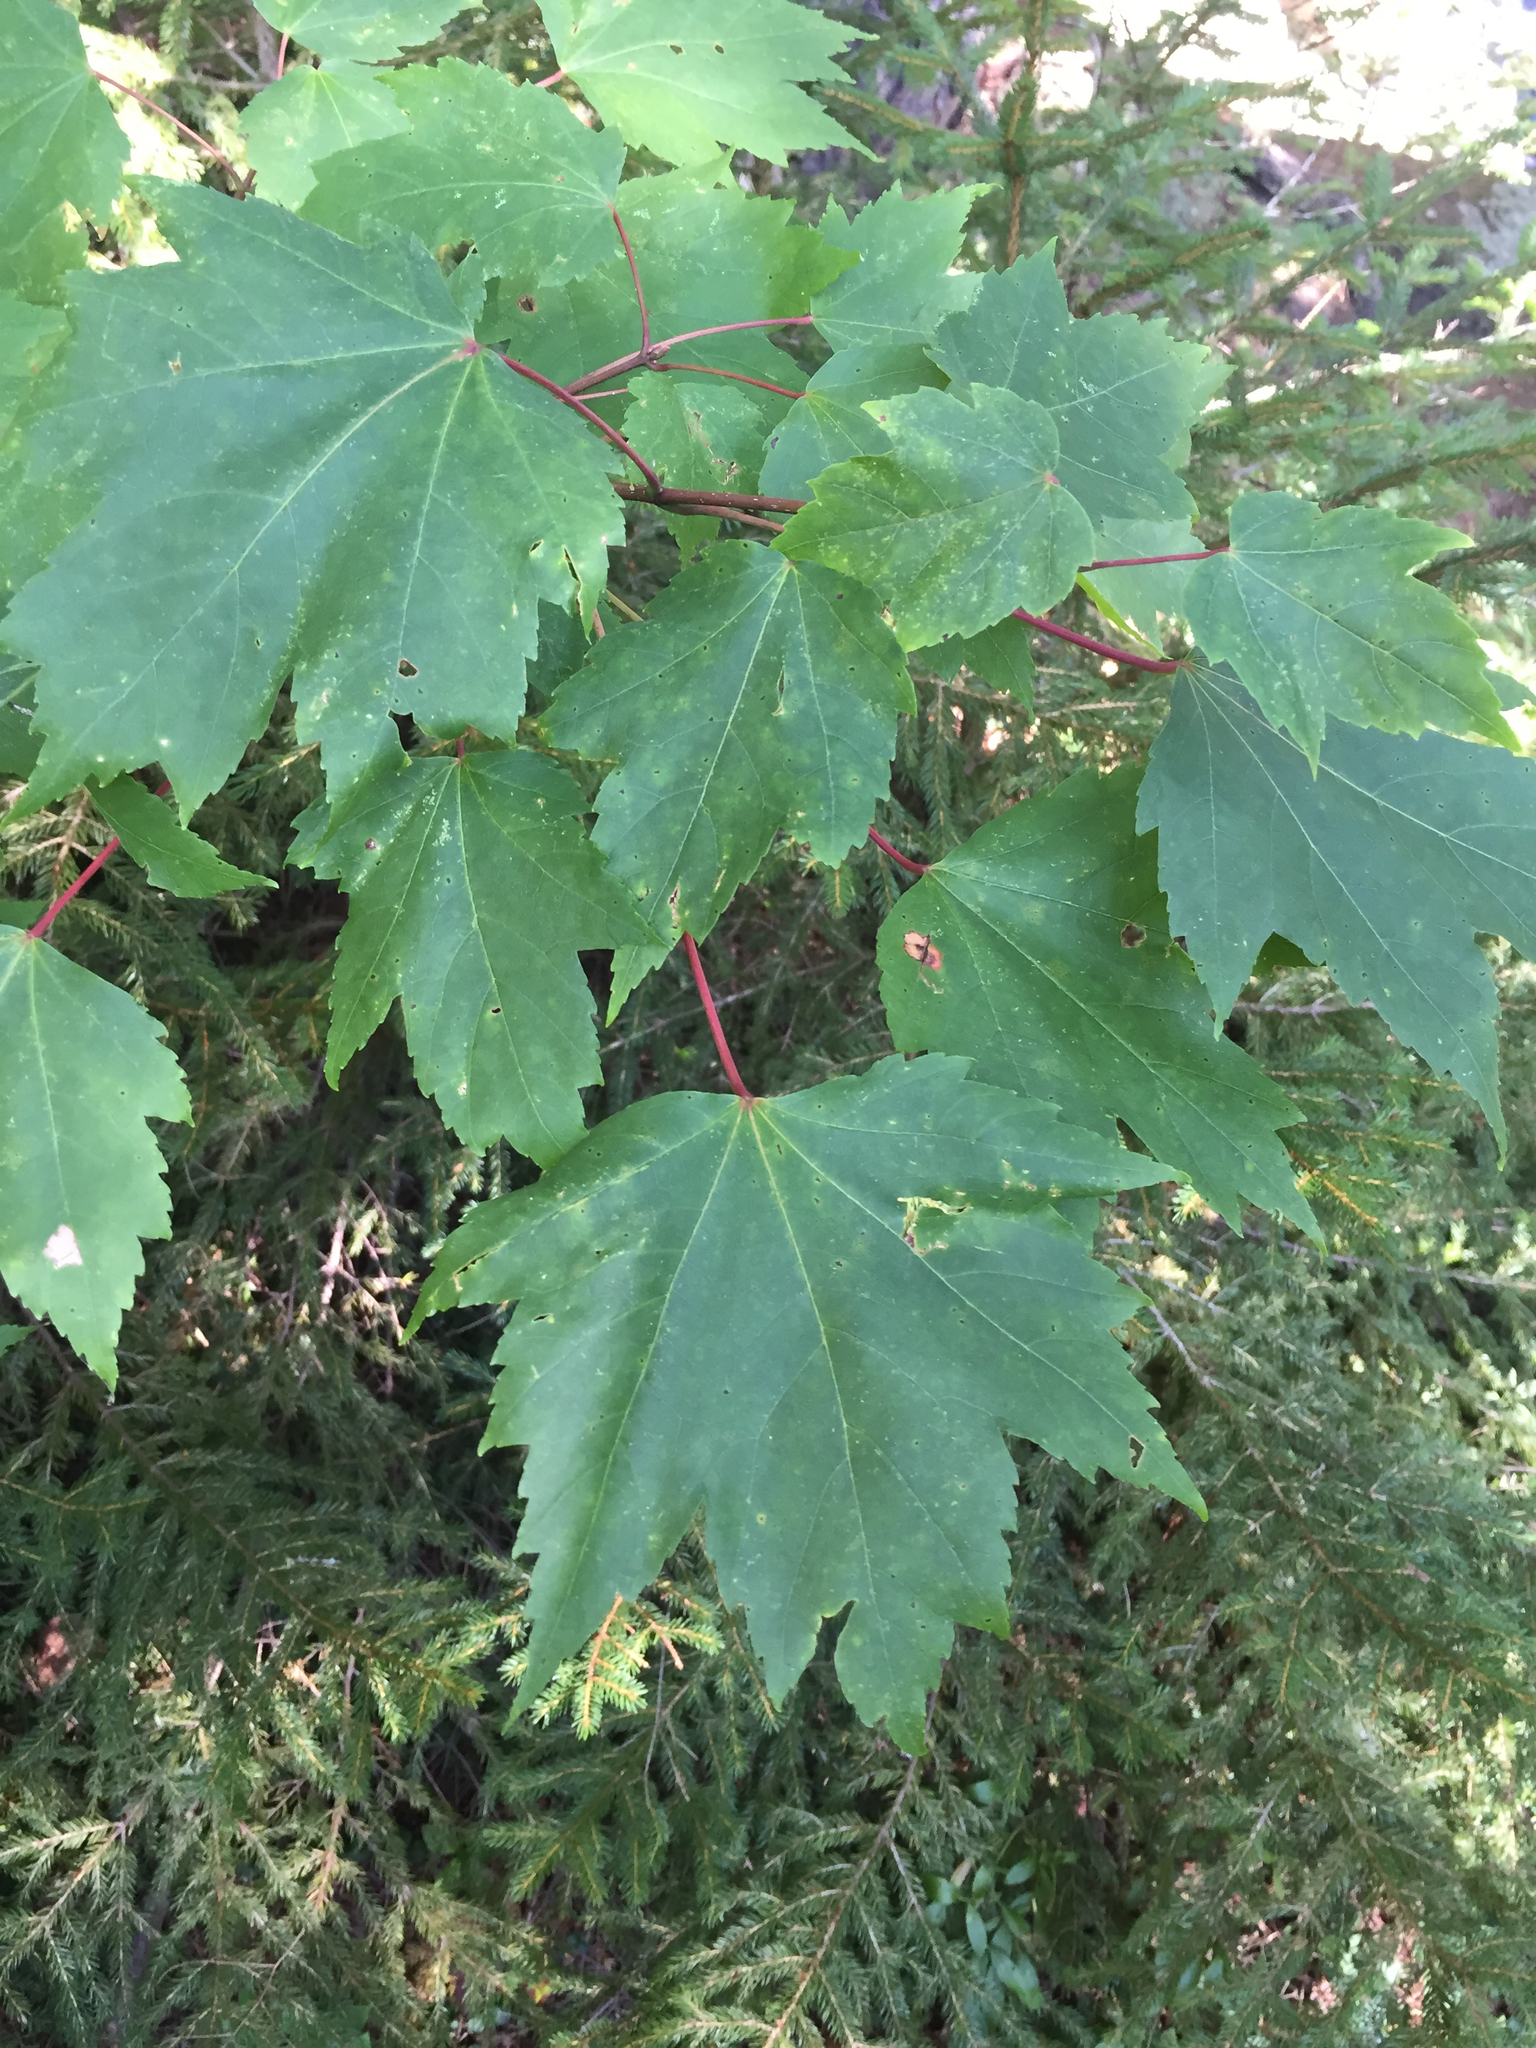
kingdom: Plantae
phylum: Tracheophyta
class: Magnoliopsida
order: Sapindales
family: Sapindaceae
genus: Acer
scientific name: Acer rubrum
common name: Red maple
